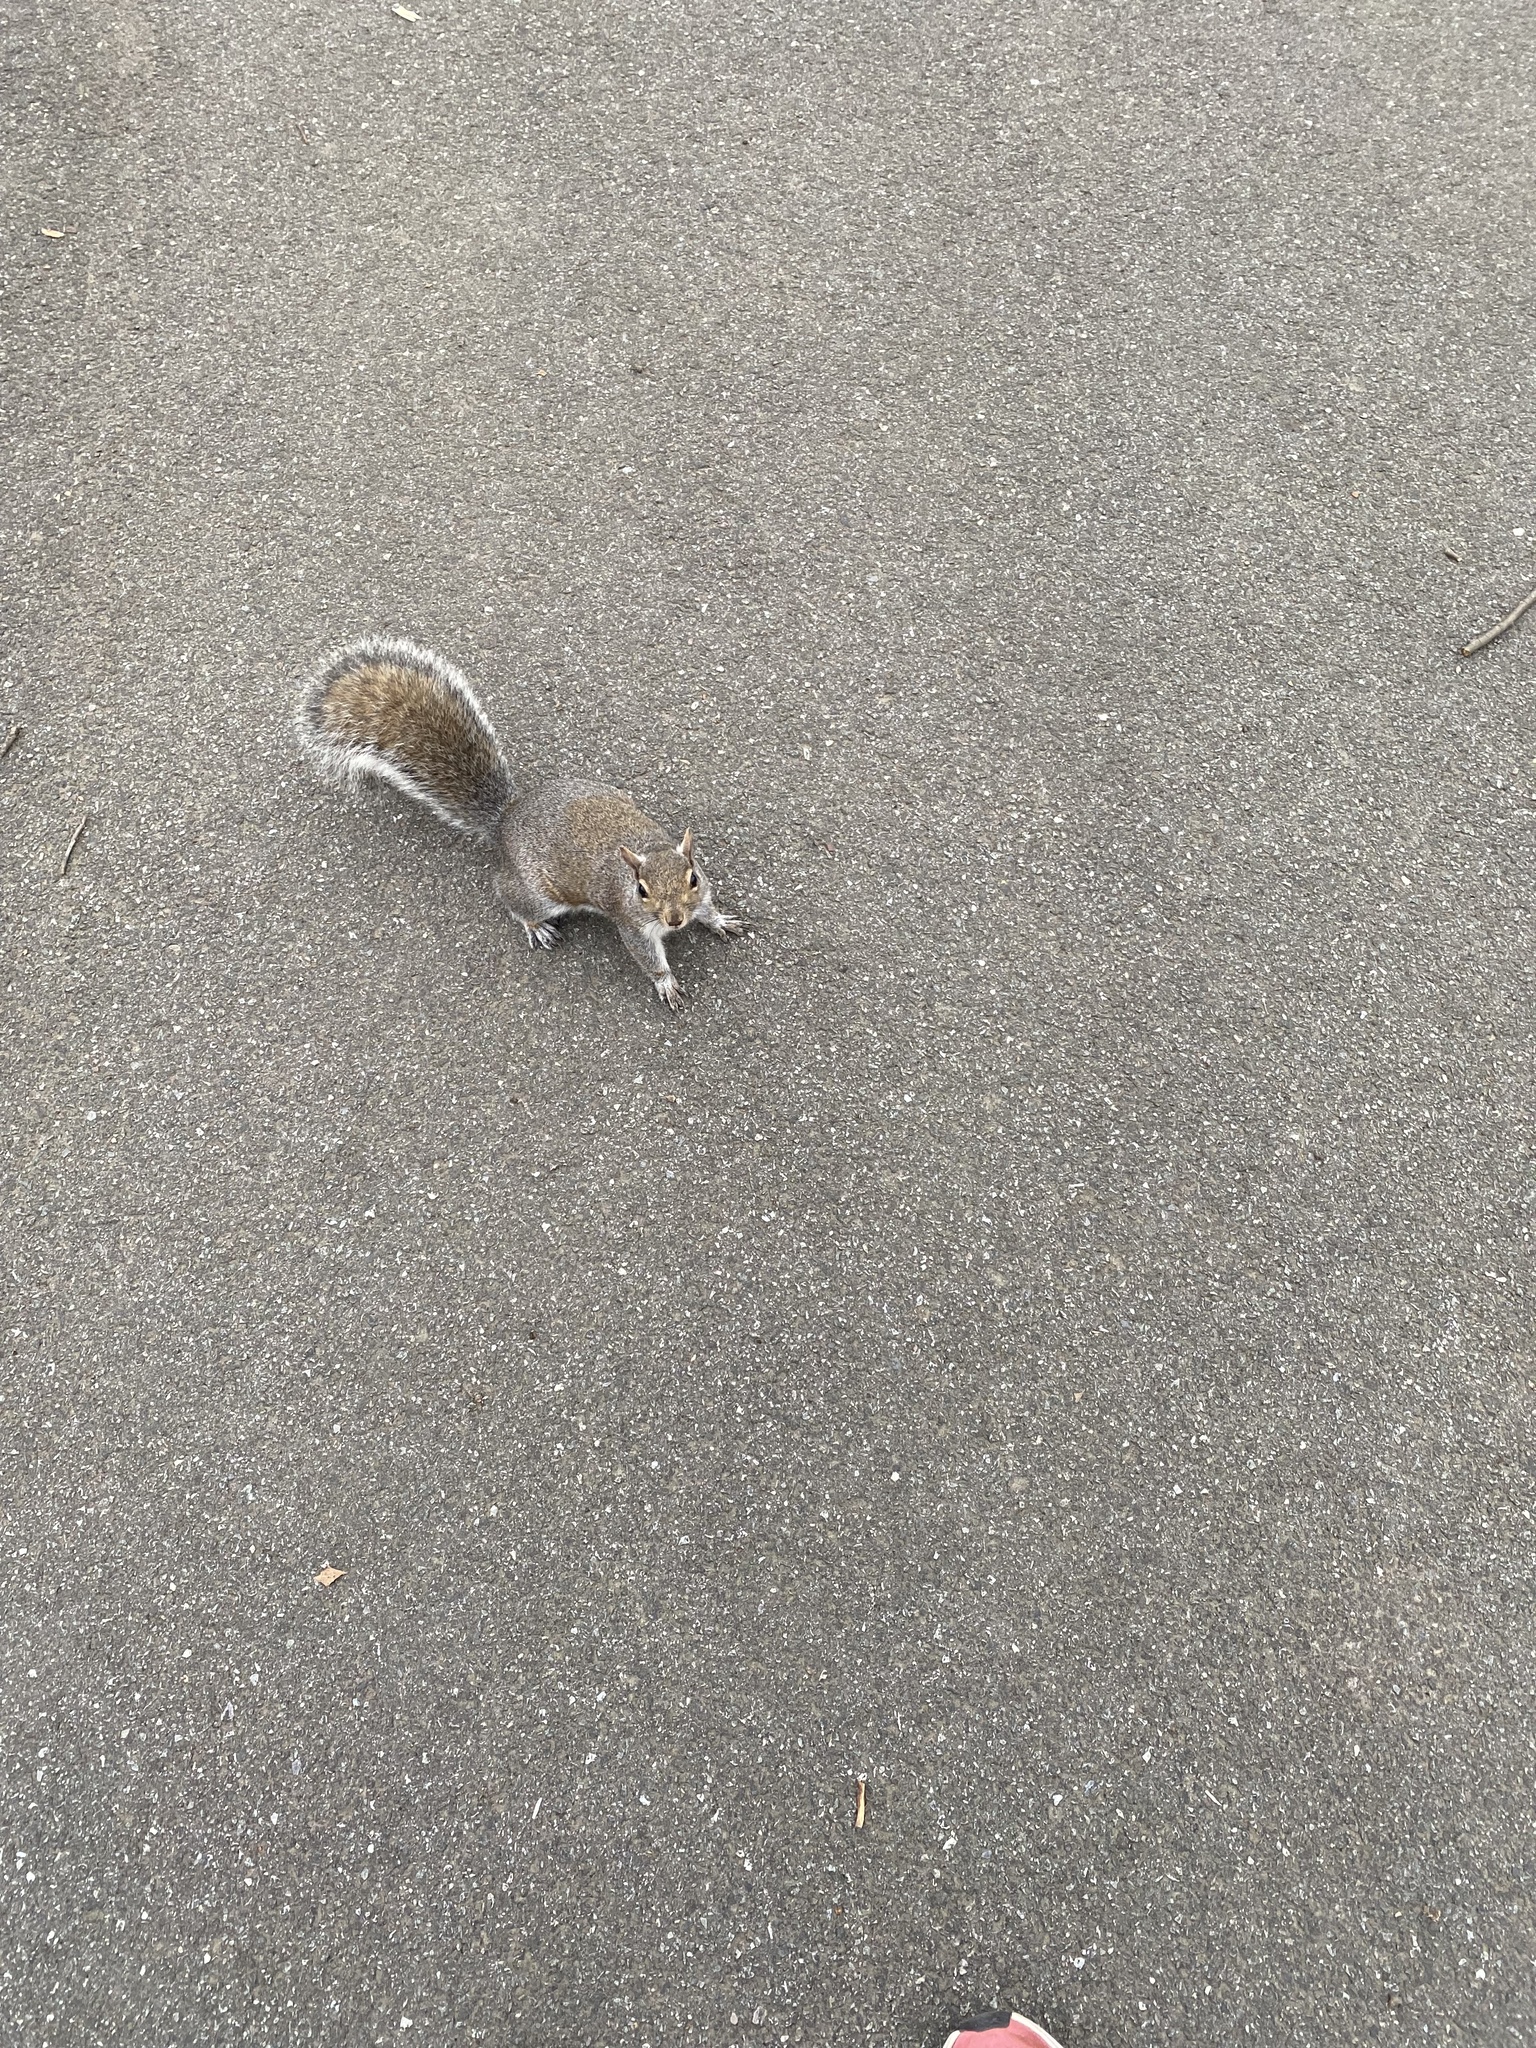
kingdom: Animalia
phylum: Chordata
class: Mammalia
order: Rodentia
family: Sciuridae
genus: Sciurus
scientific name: Sciurus carolinensis
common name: Eastern gray squirrel
